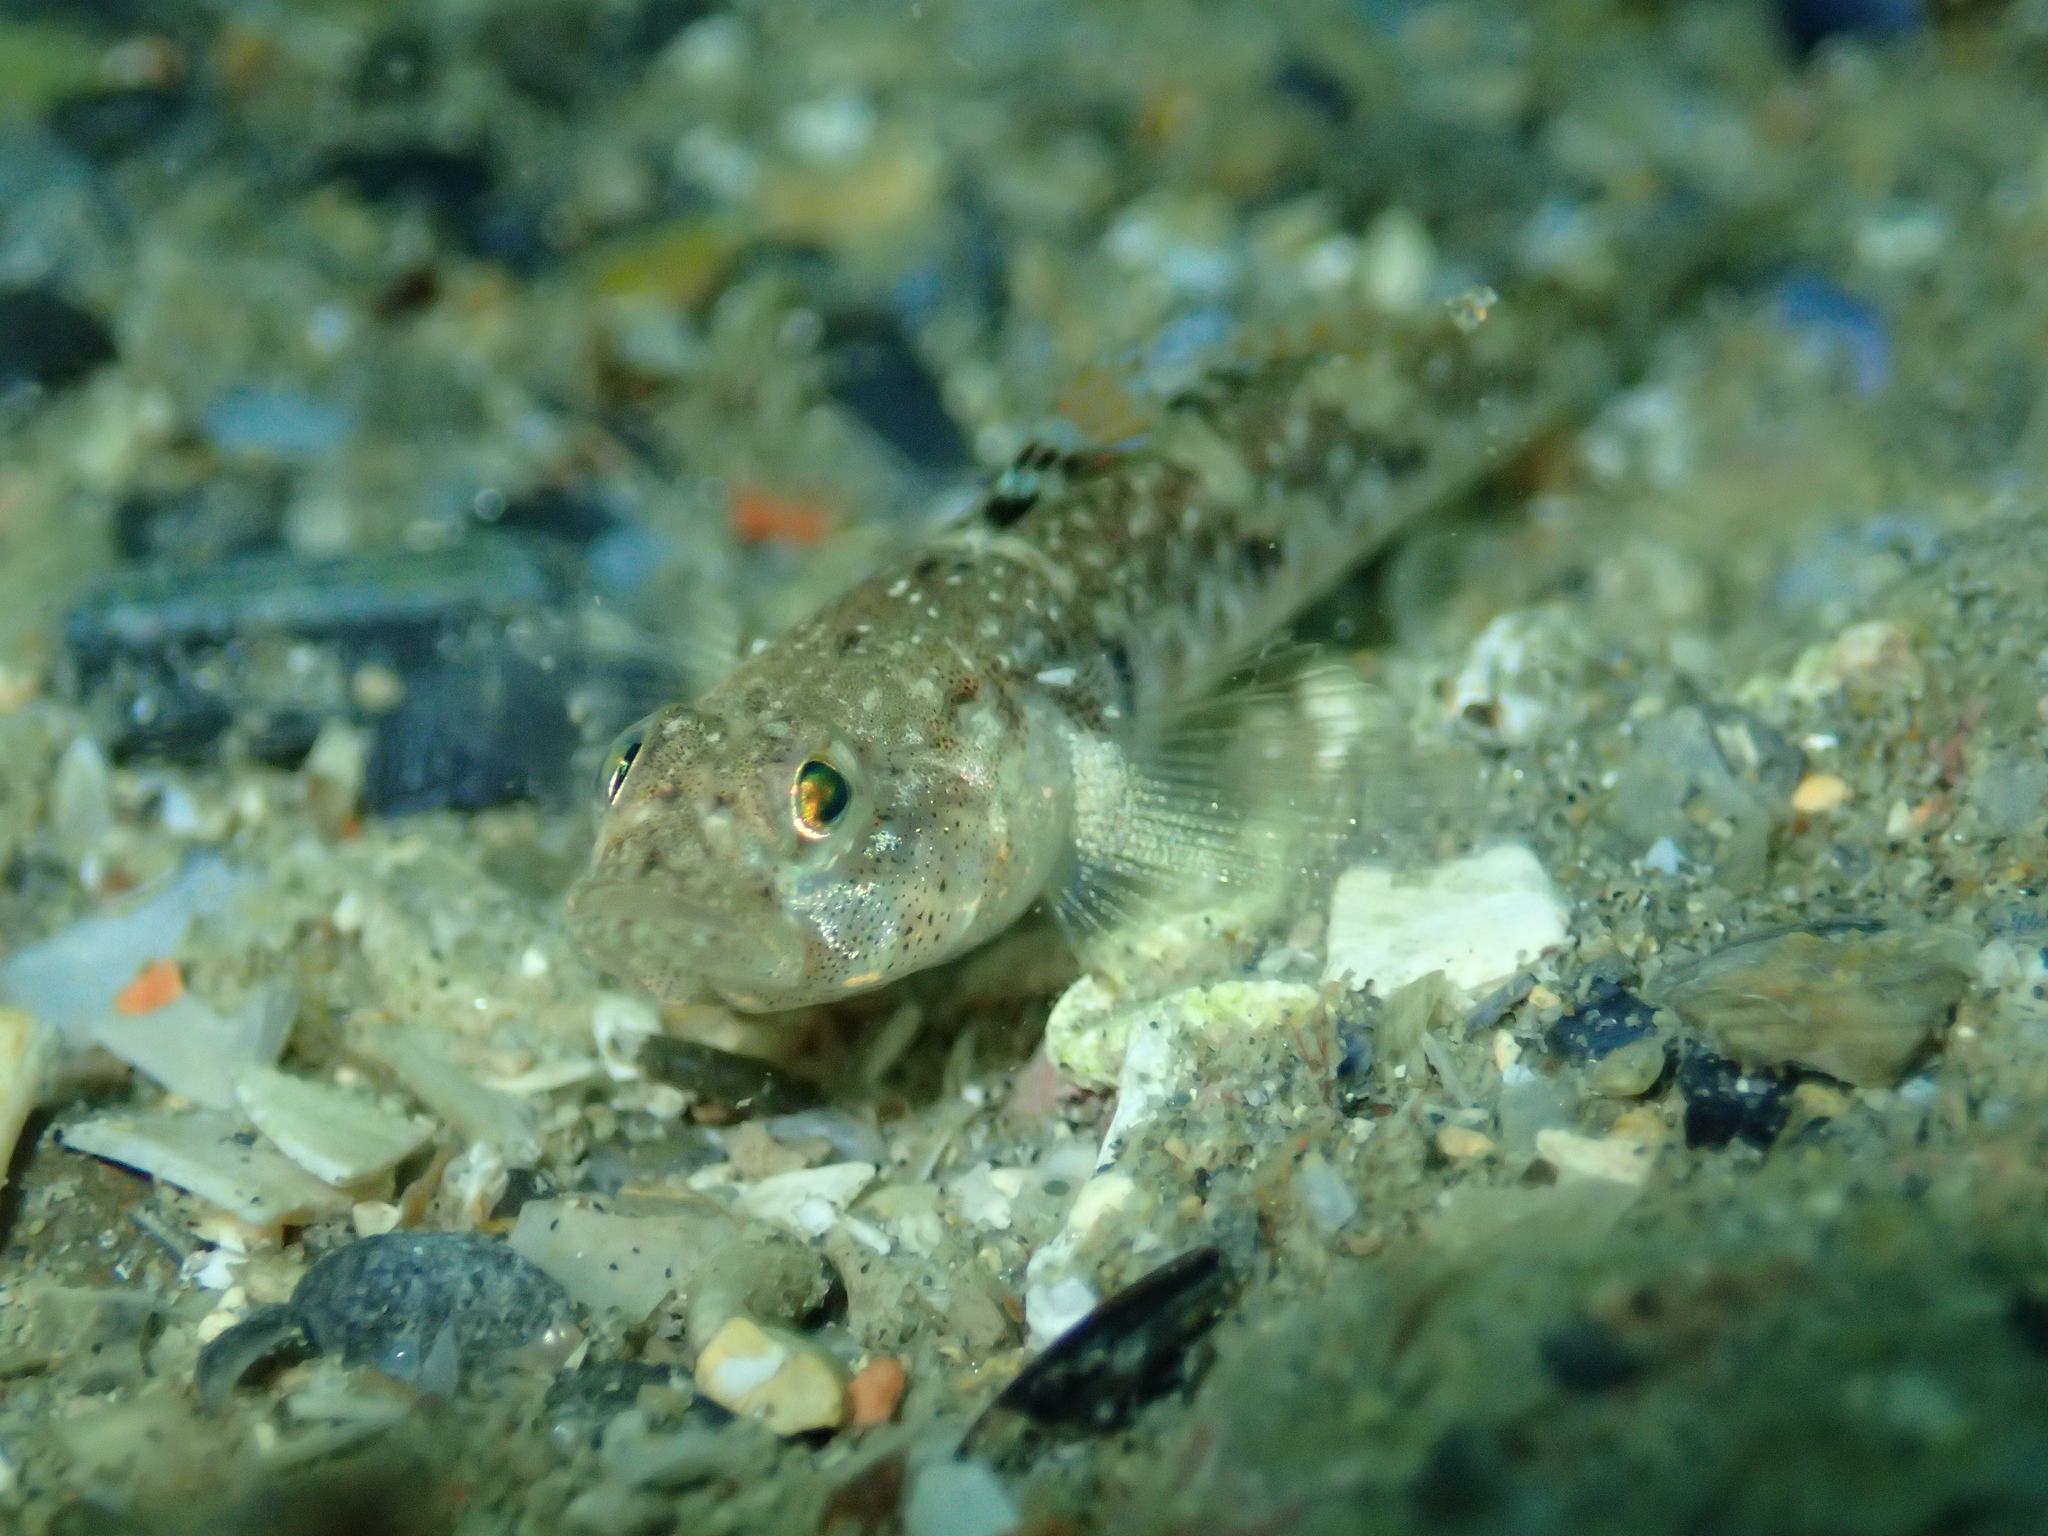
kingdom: Animalia
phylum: Chordata
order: Perciformes
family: Gobiidae
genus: Pomatoschistus
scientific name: Pomatoschistus pictus
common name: Painted goby
